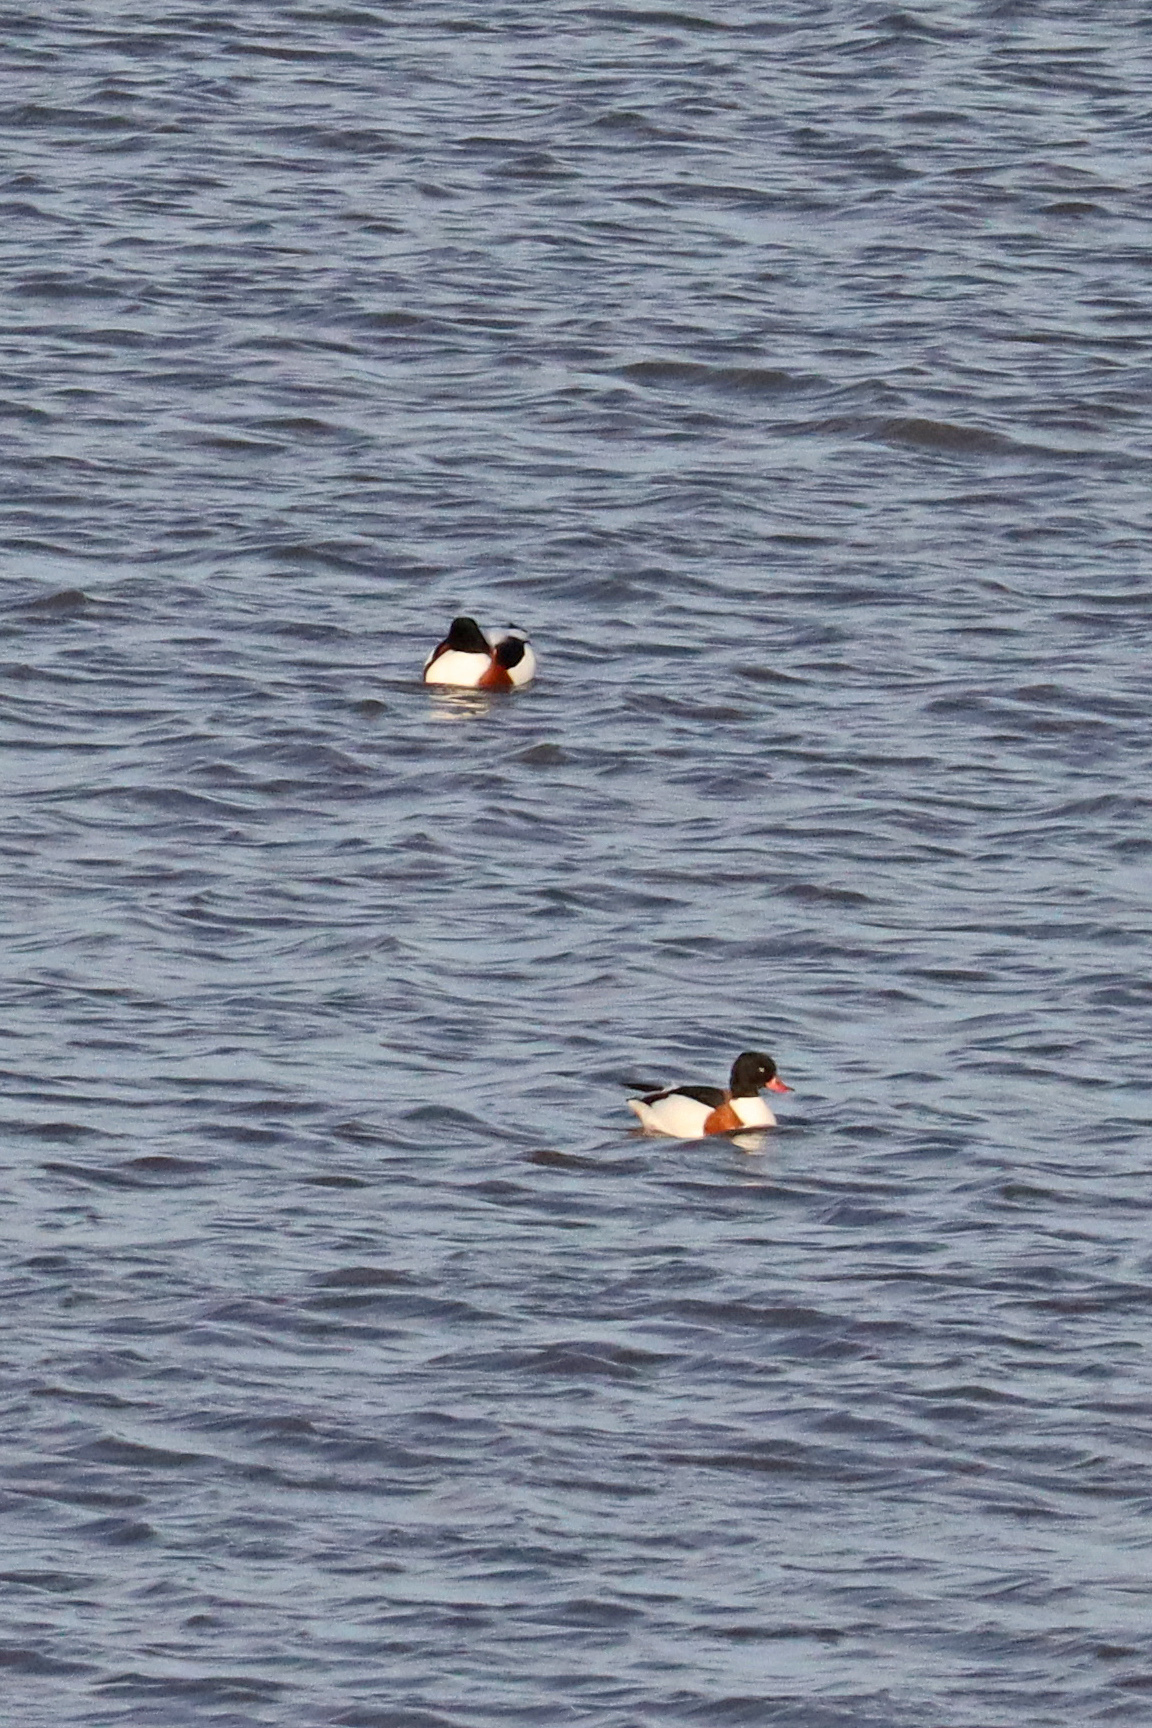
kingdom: Animalia
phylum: Chordata
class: Aves
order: Anseriformes
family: Anatidae
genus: Tadorna
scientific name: Tadorna tadorna
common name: Common shelduck
